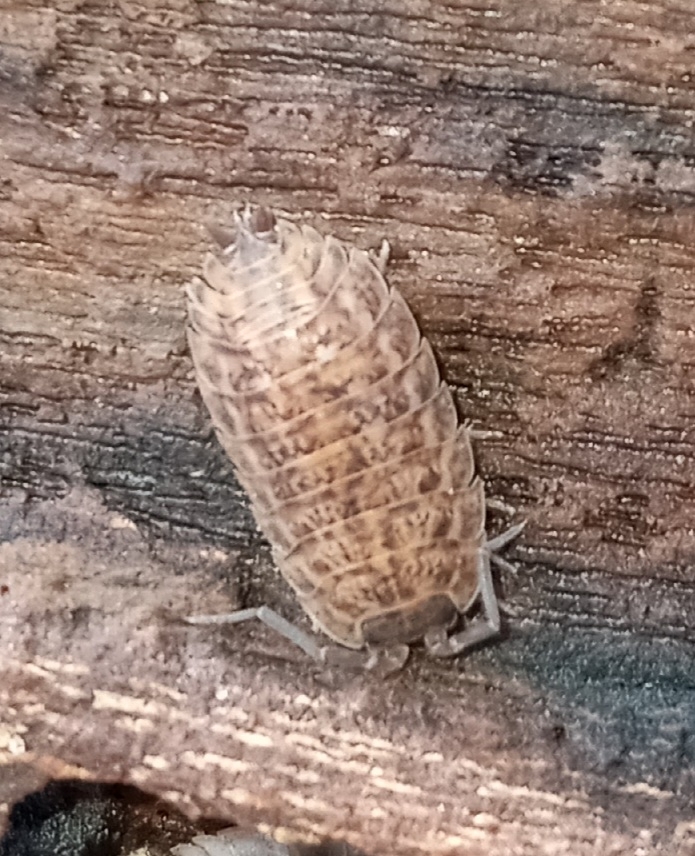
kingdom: Animalia
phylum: Arthropoda
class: Malacostraca
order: Isopoda
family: Trachelipodidae
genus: Trachelipus
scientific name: Trachelipus rathkii
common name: Isopod
